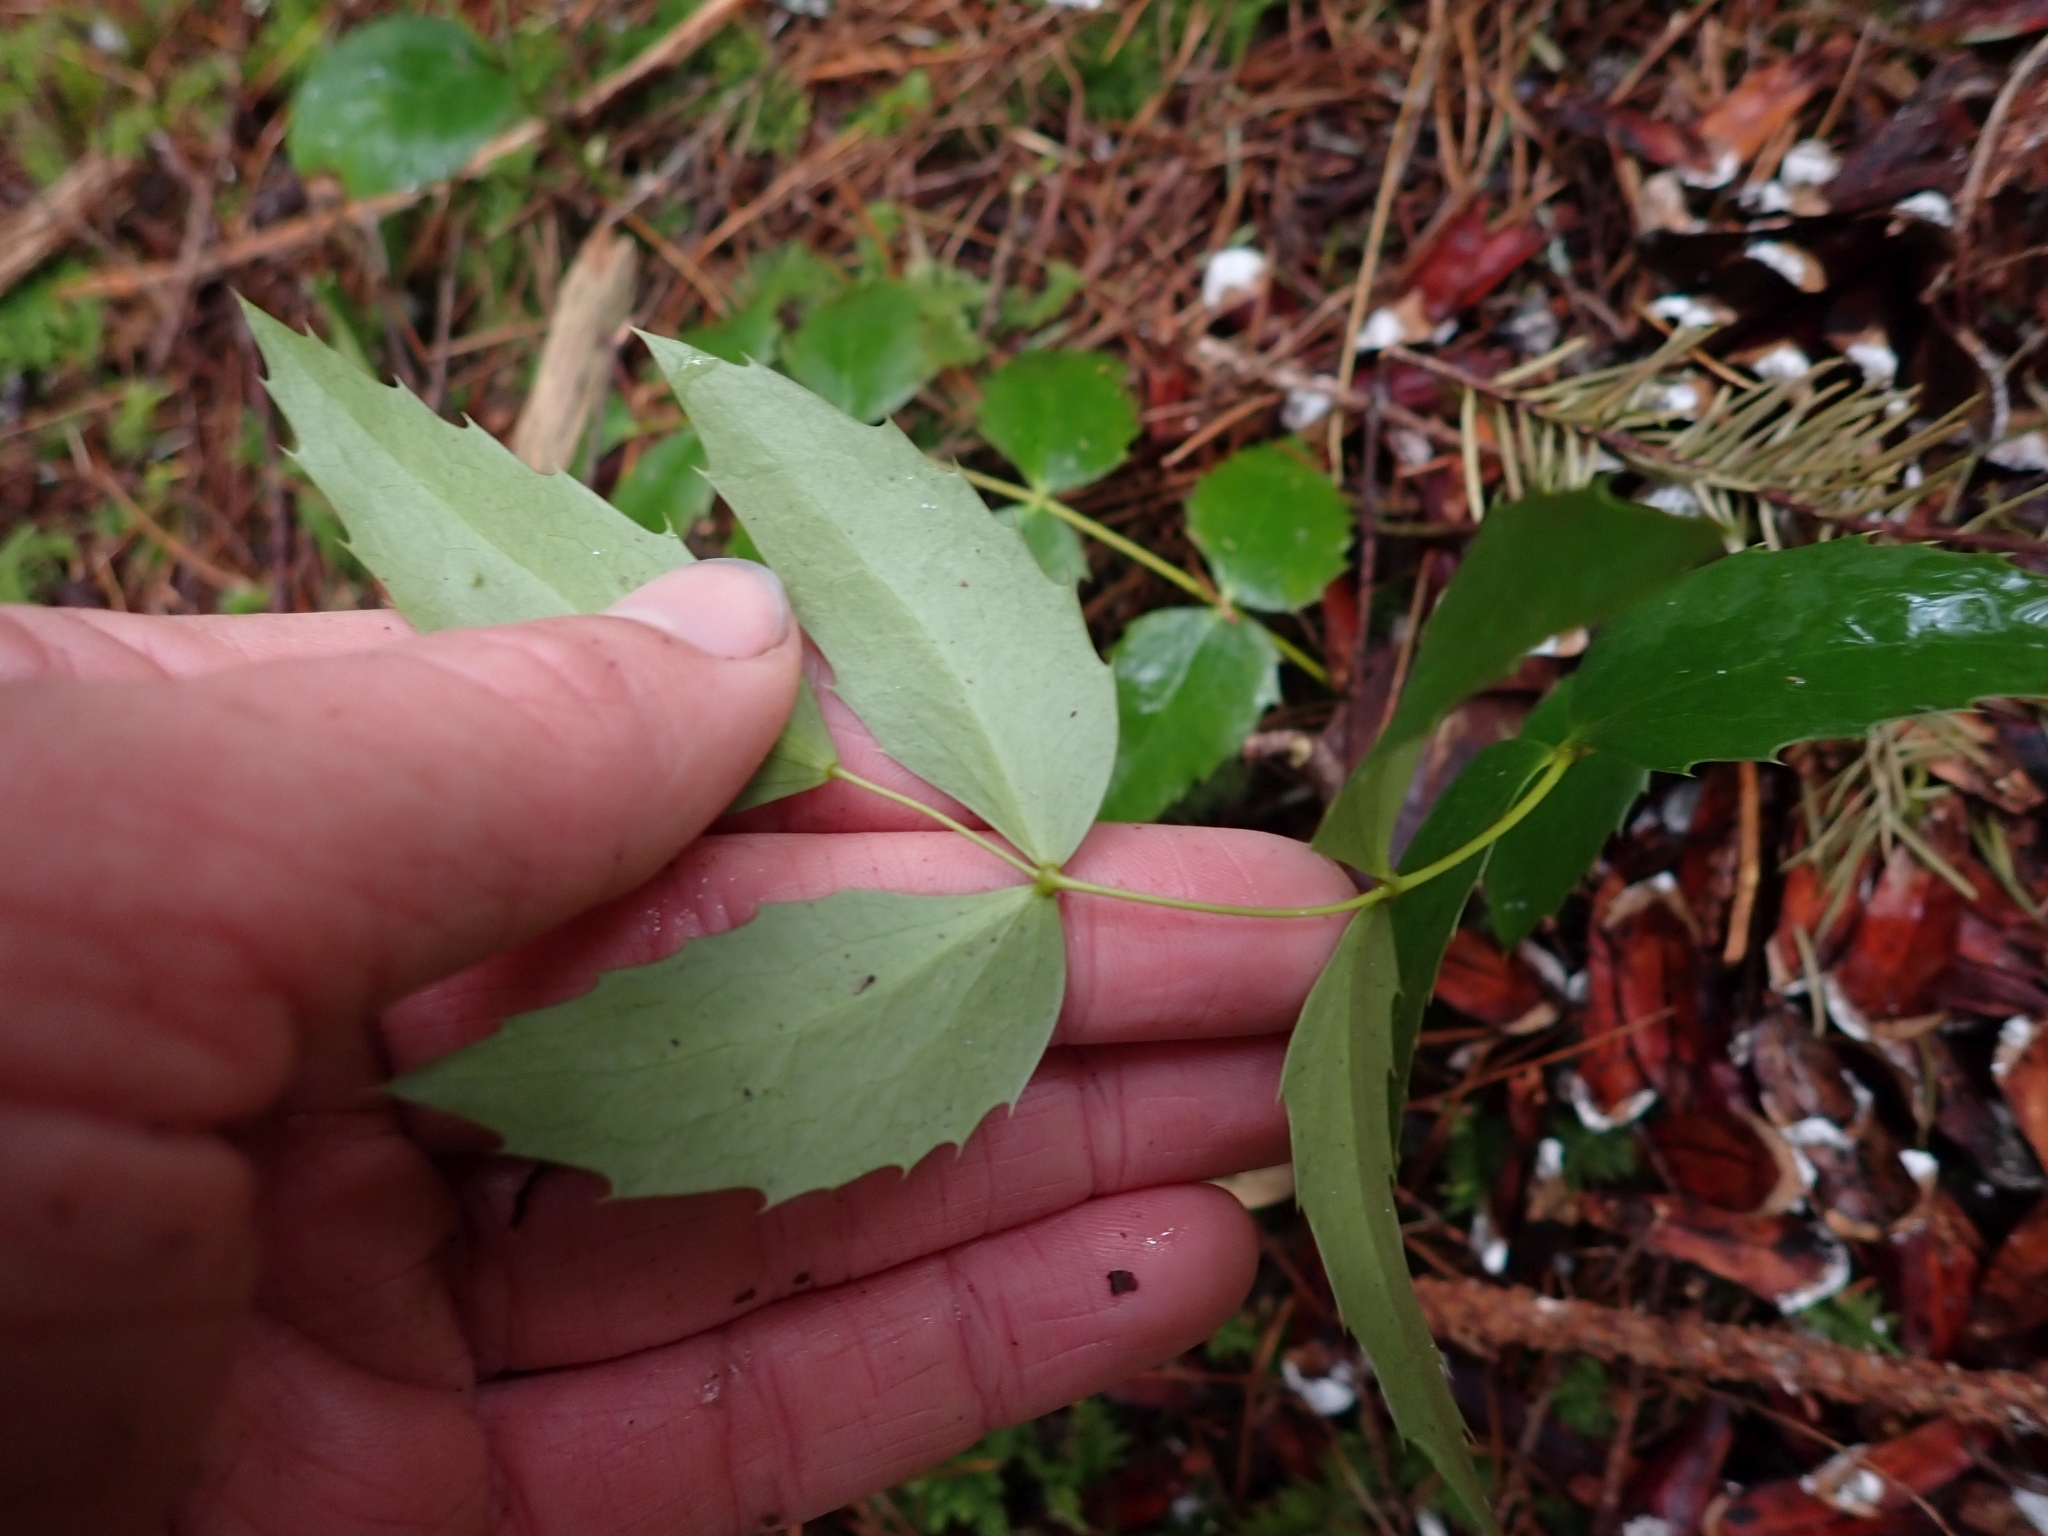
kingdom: Plantae
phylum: Tracheophyta
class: Magnoliopsida
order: Ranunculales
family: Berberidaceae
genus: Mahonia
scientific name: Mahonia nervosa
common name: Cascade oregon-grape
